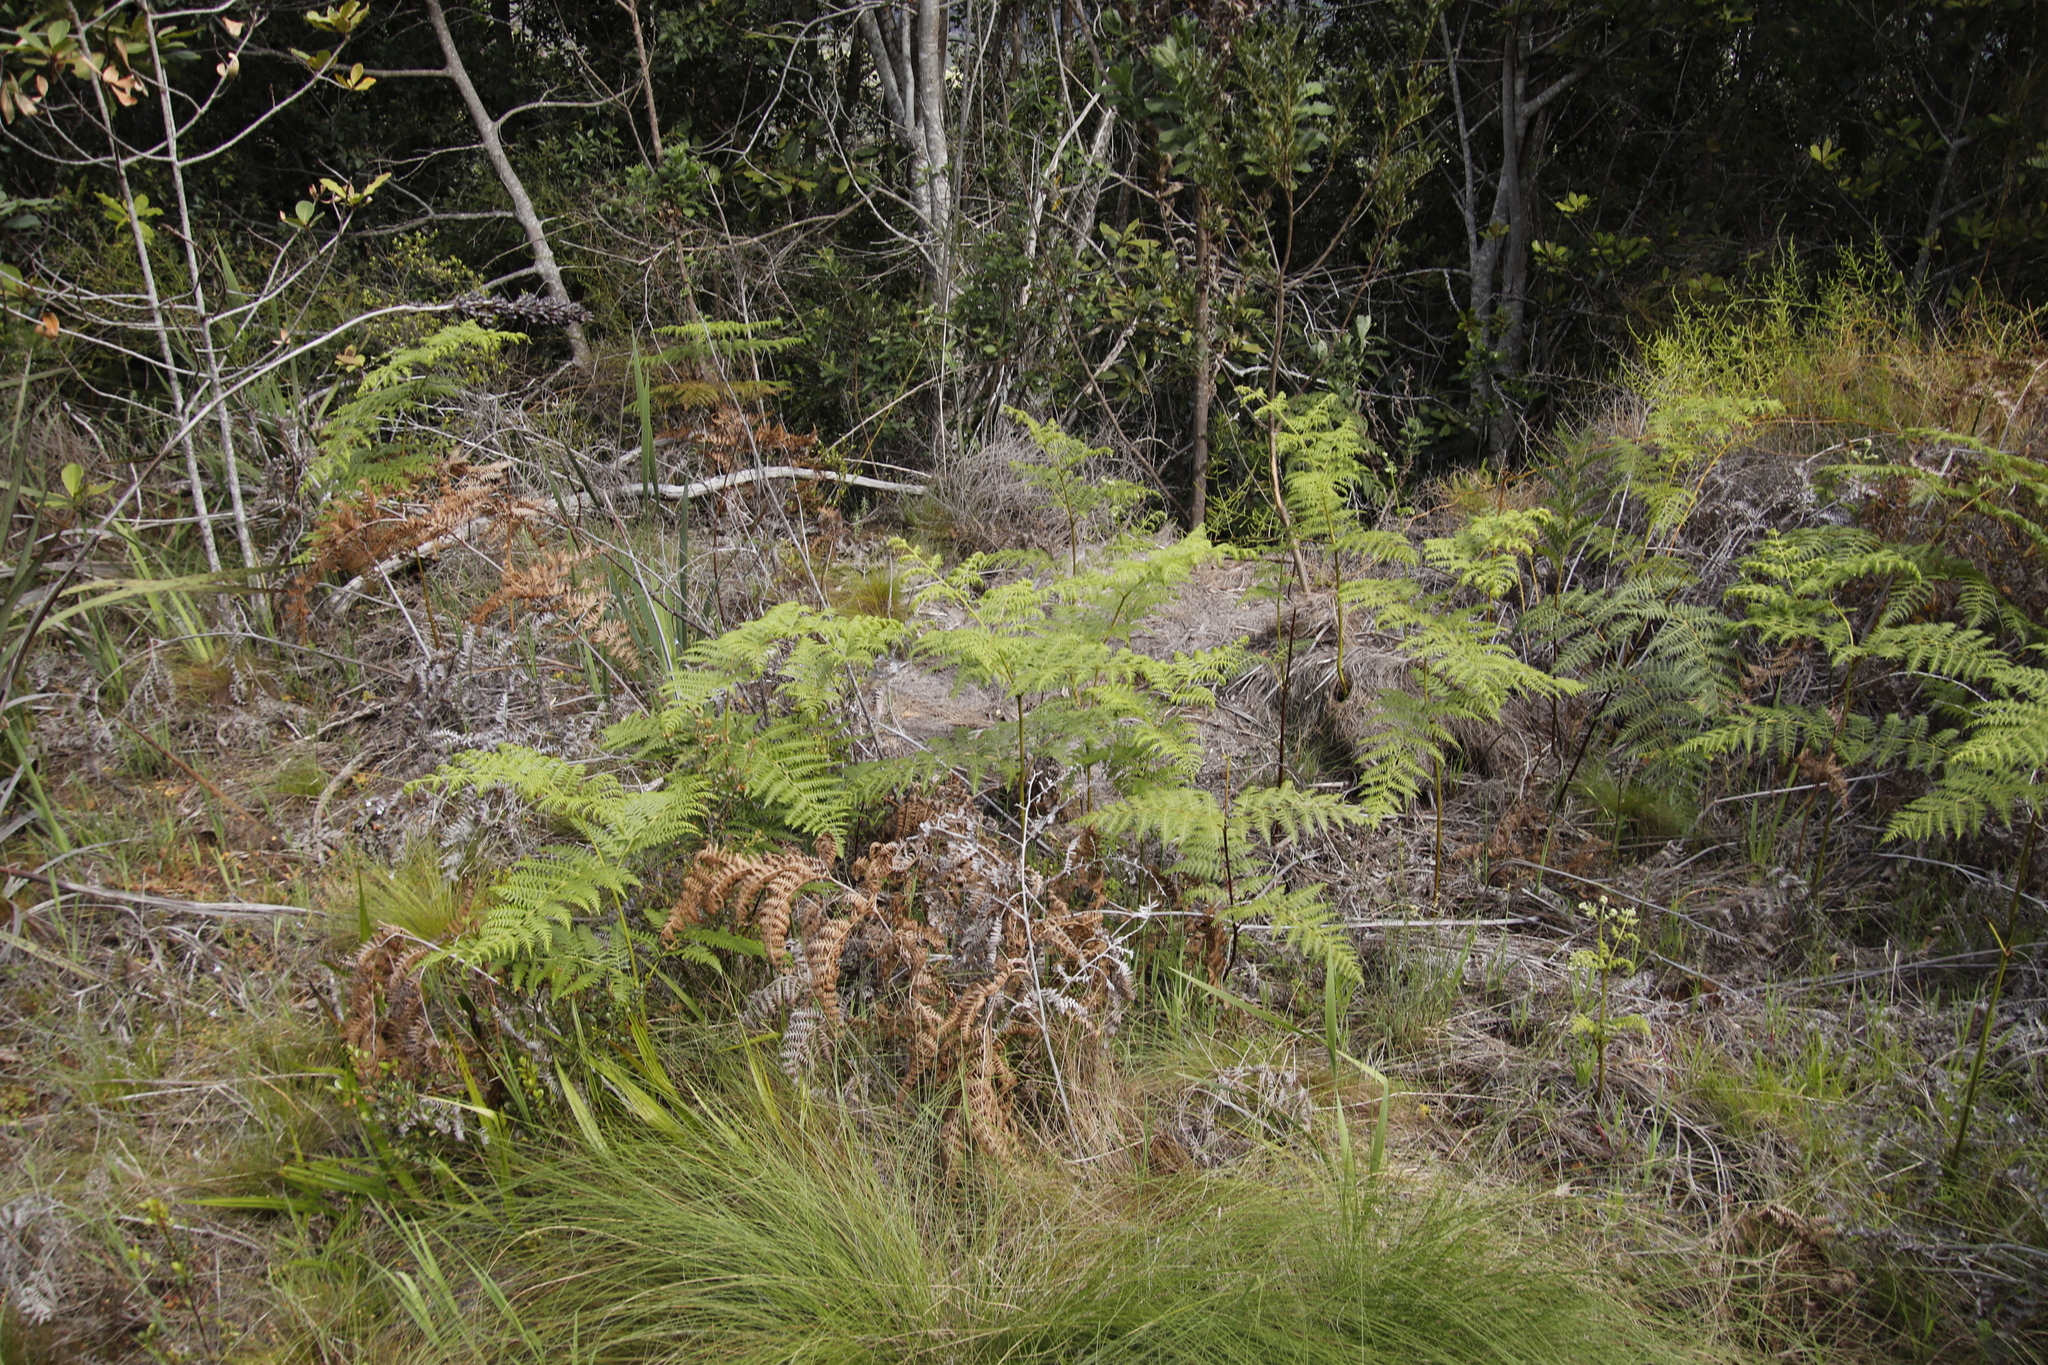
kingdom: Plantae
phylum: Tracheophyta
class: Polypodiopsida
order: Polypodiales
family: Dennstaedtiaceae
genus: Pteridium
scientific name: Pteridium aquilinum
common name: Bracken
